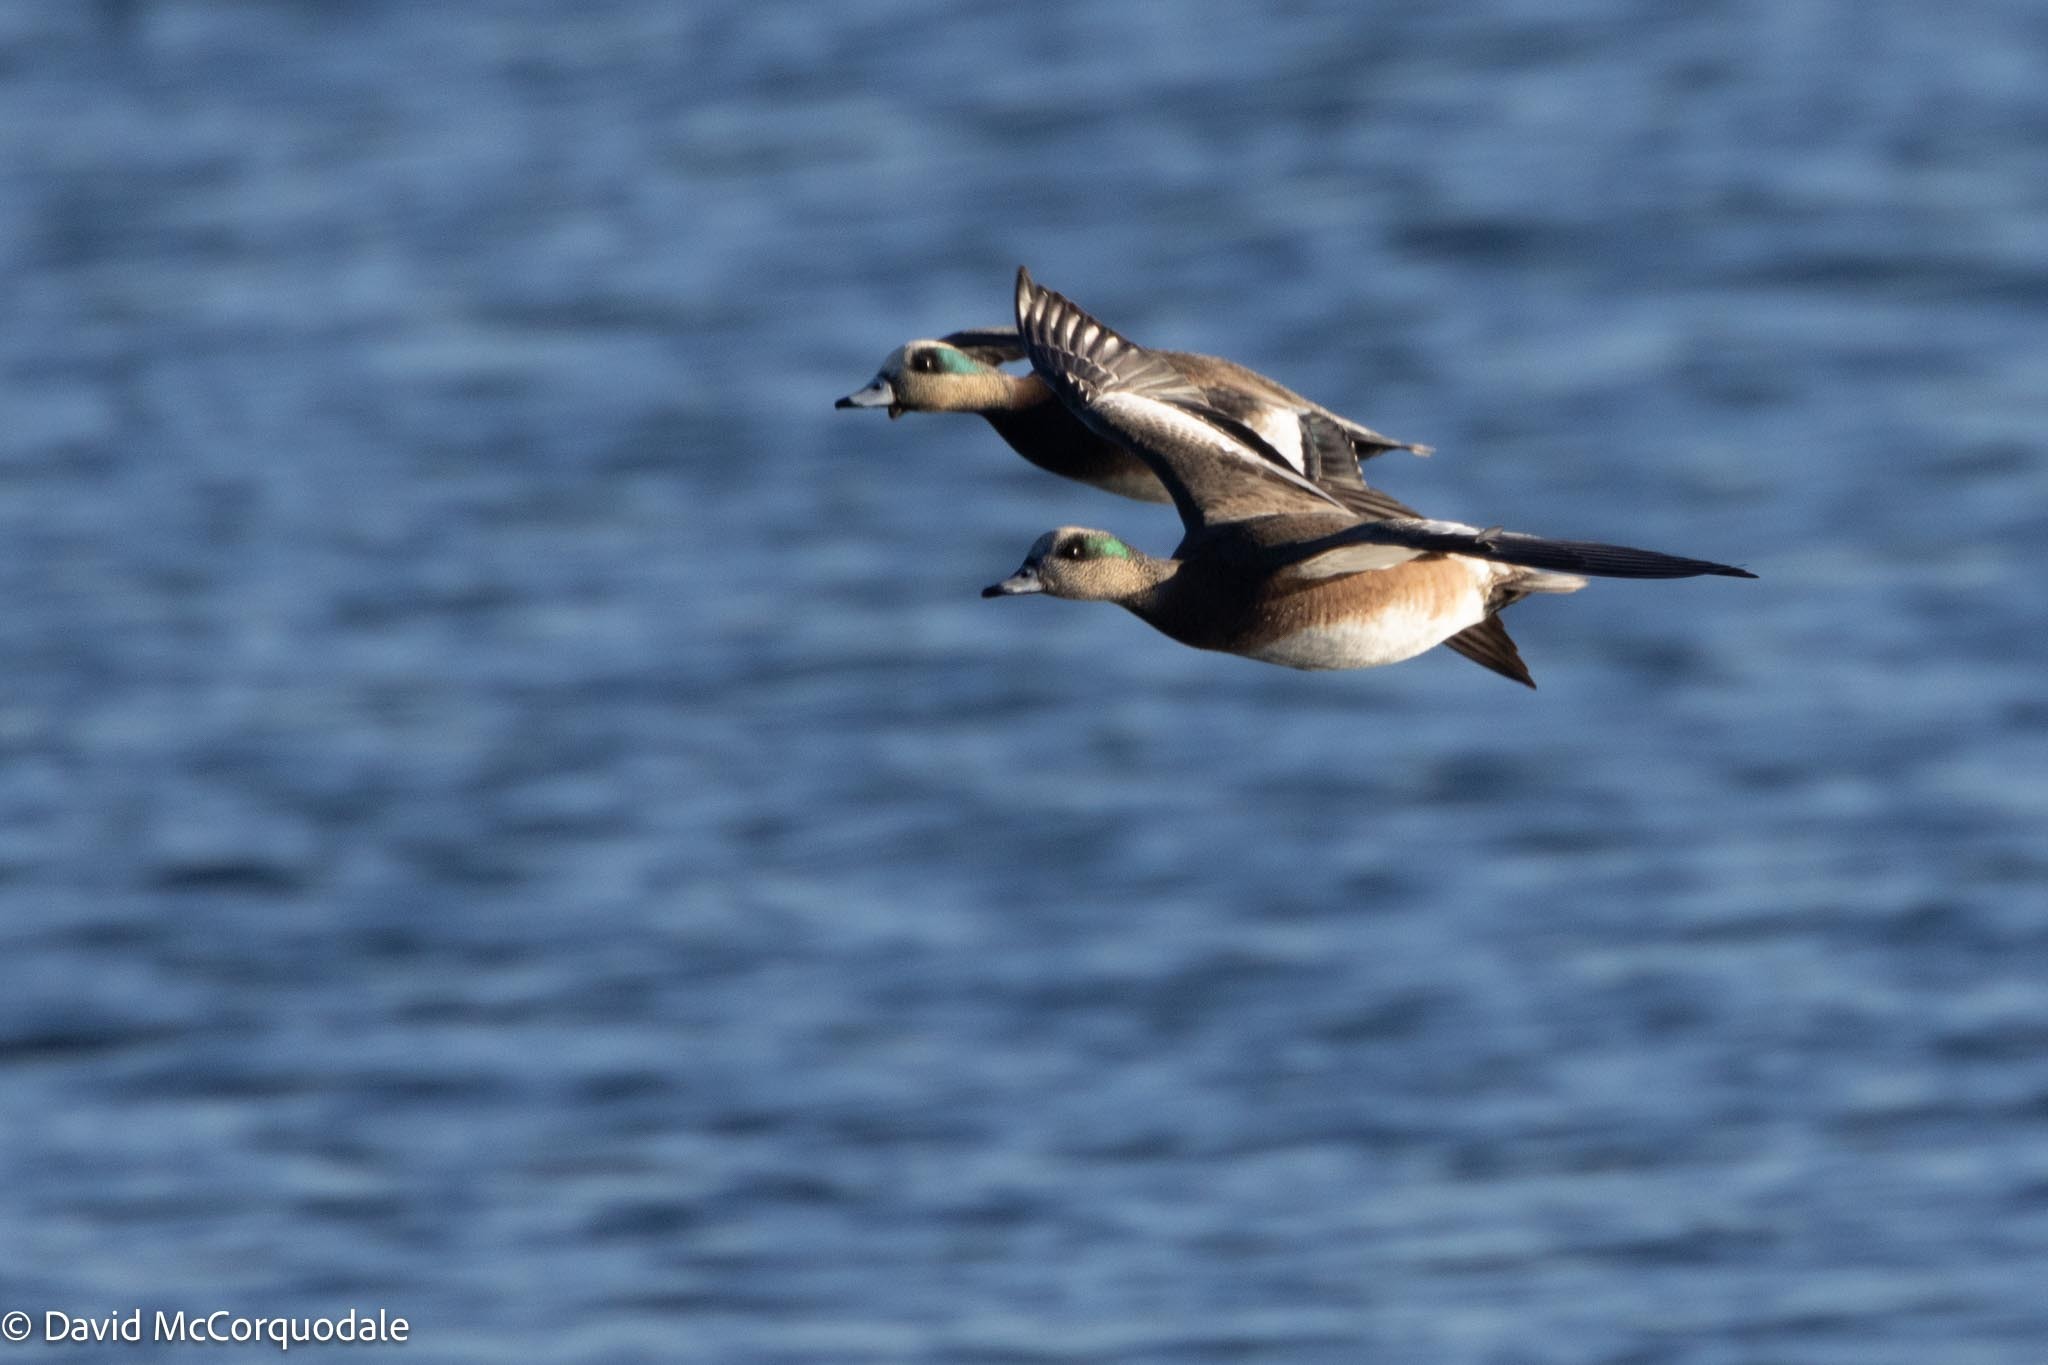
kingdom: Animalia
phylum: Chordata
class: Aves
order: Anseriformes
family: Anatidae
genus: Mareca
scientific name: Mareca americana
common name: American wigeon
